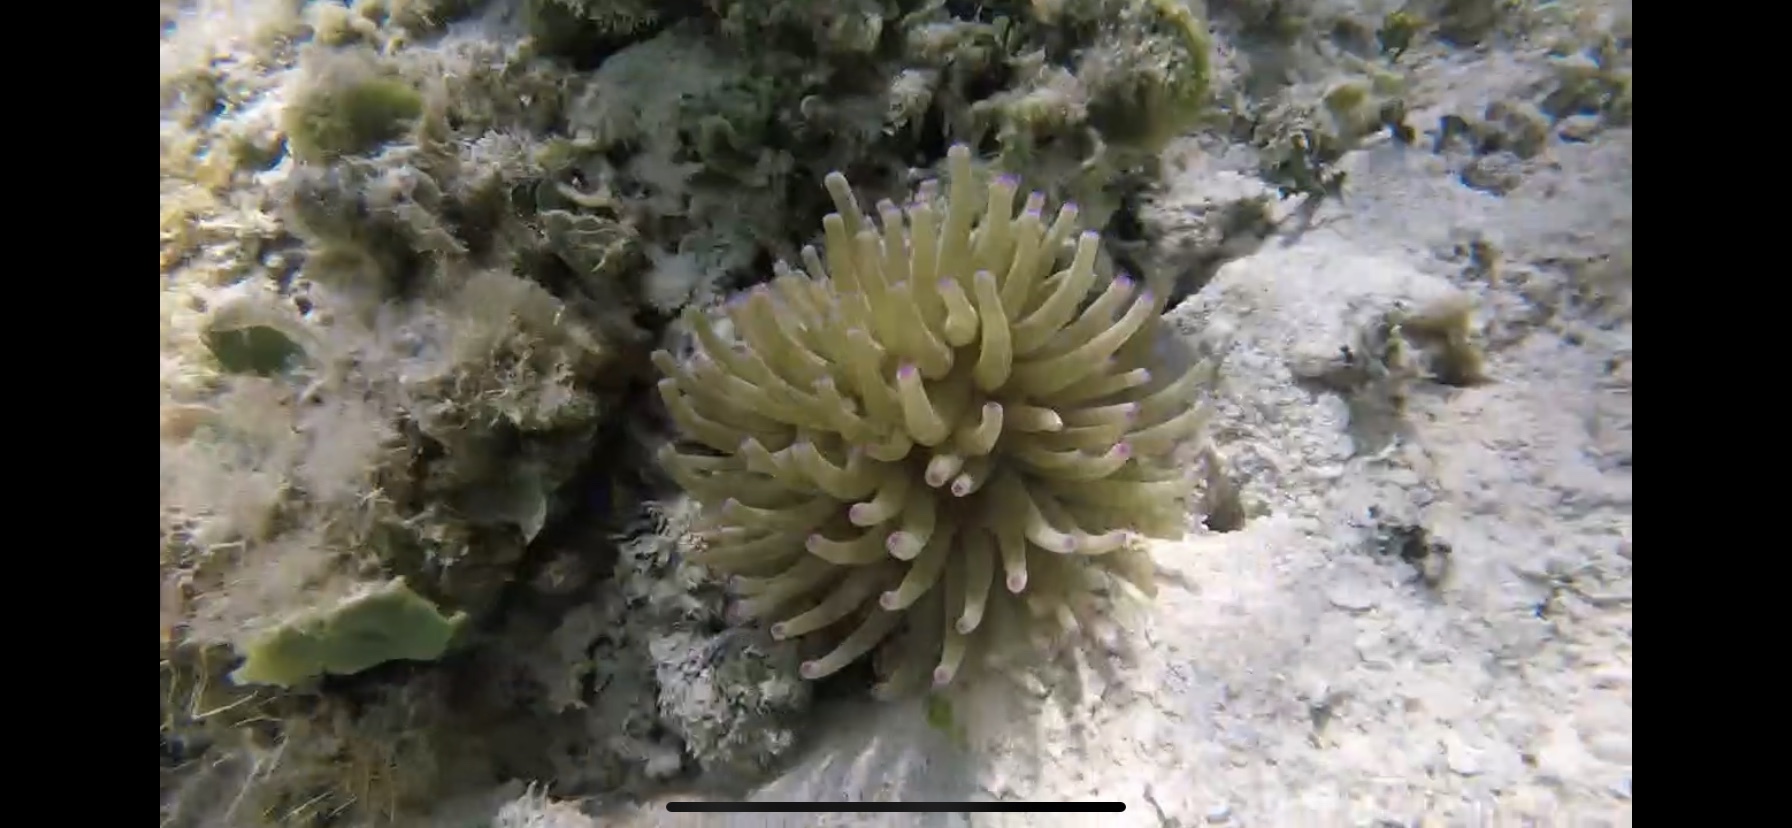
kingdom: Animalia
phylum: Cnidaria
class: Anthozoa
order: Actiniaria
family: Actiniidae
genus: Condylactis
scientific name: Condylactis gigantea
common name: Giant caribbean anemone
